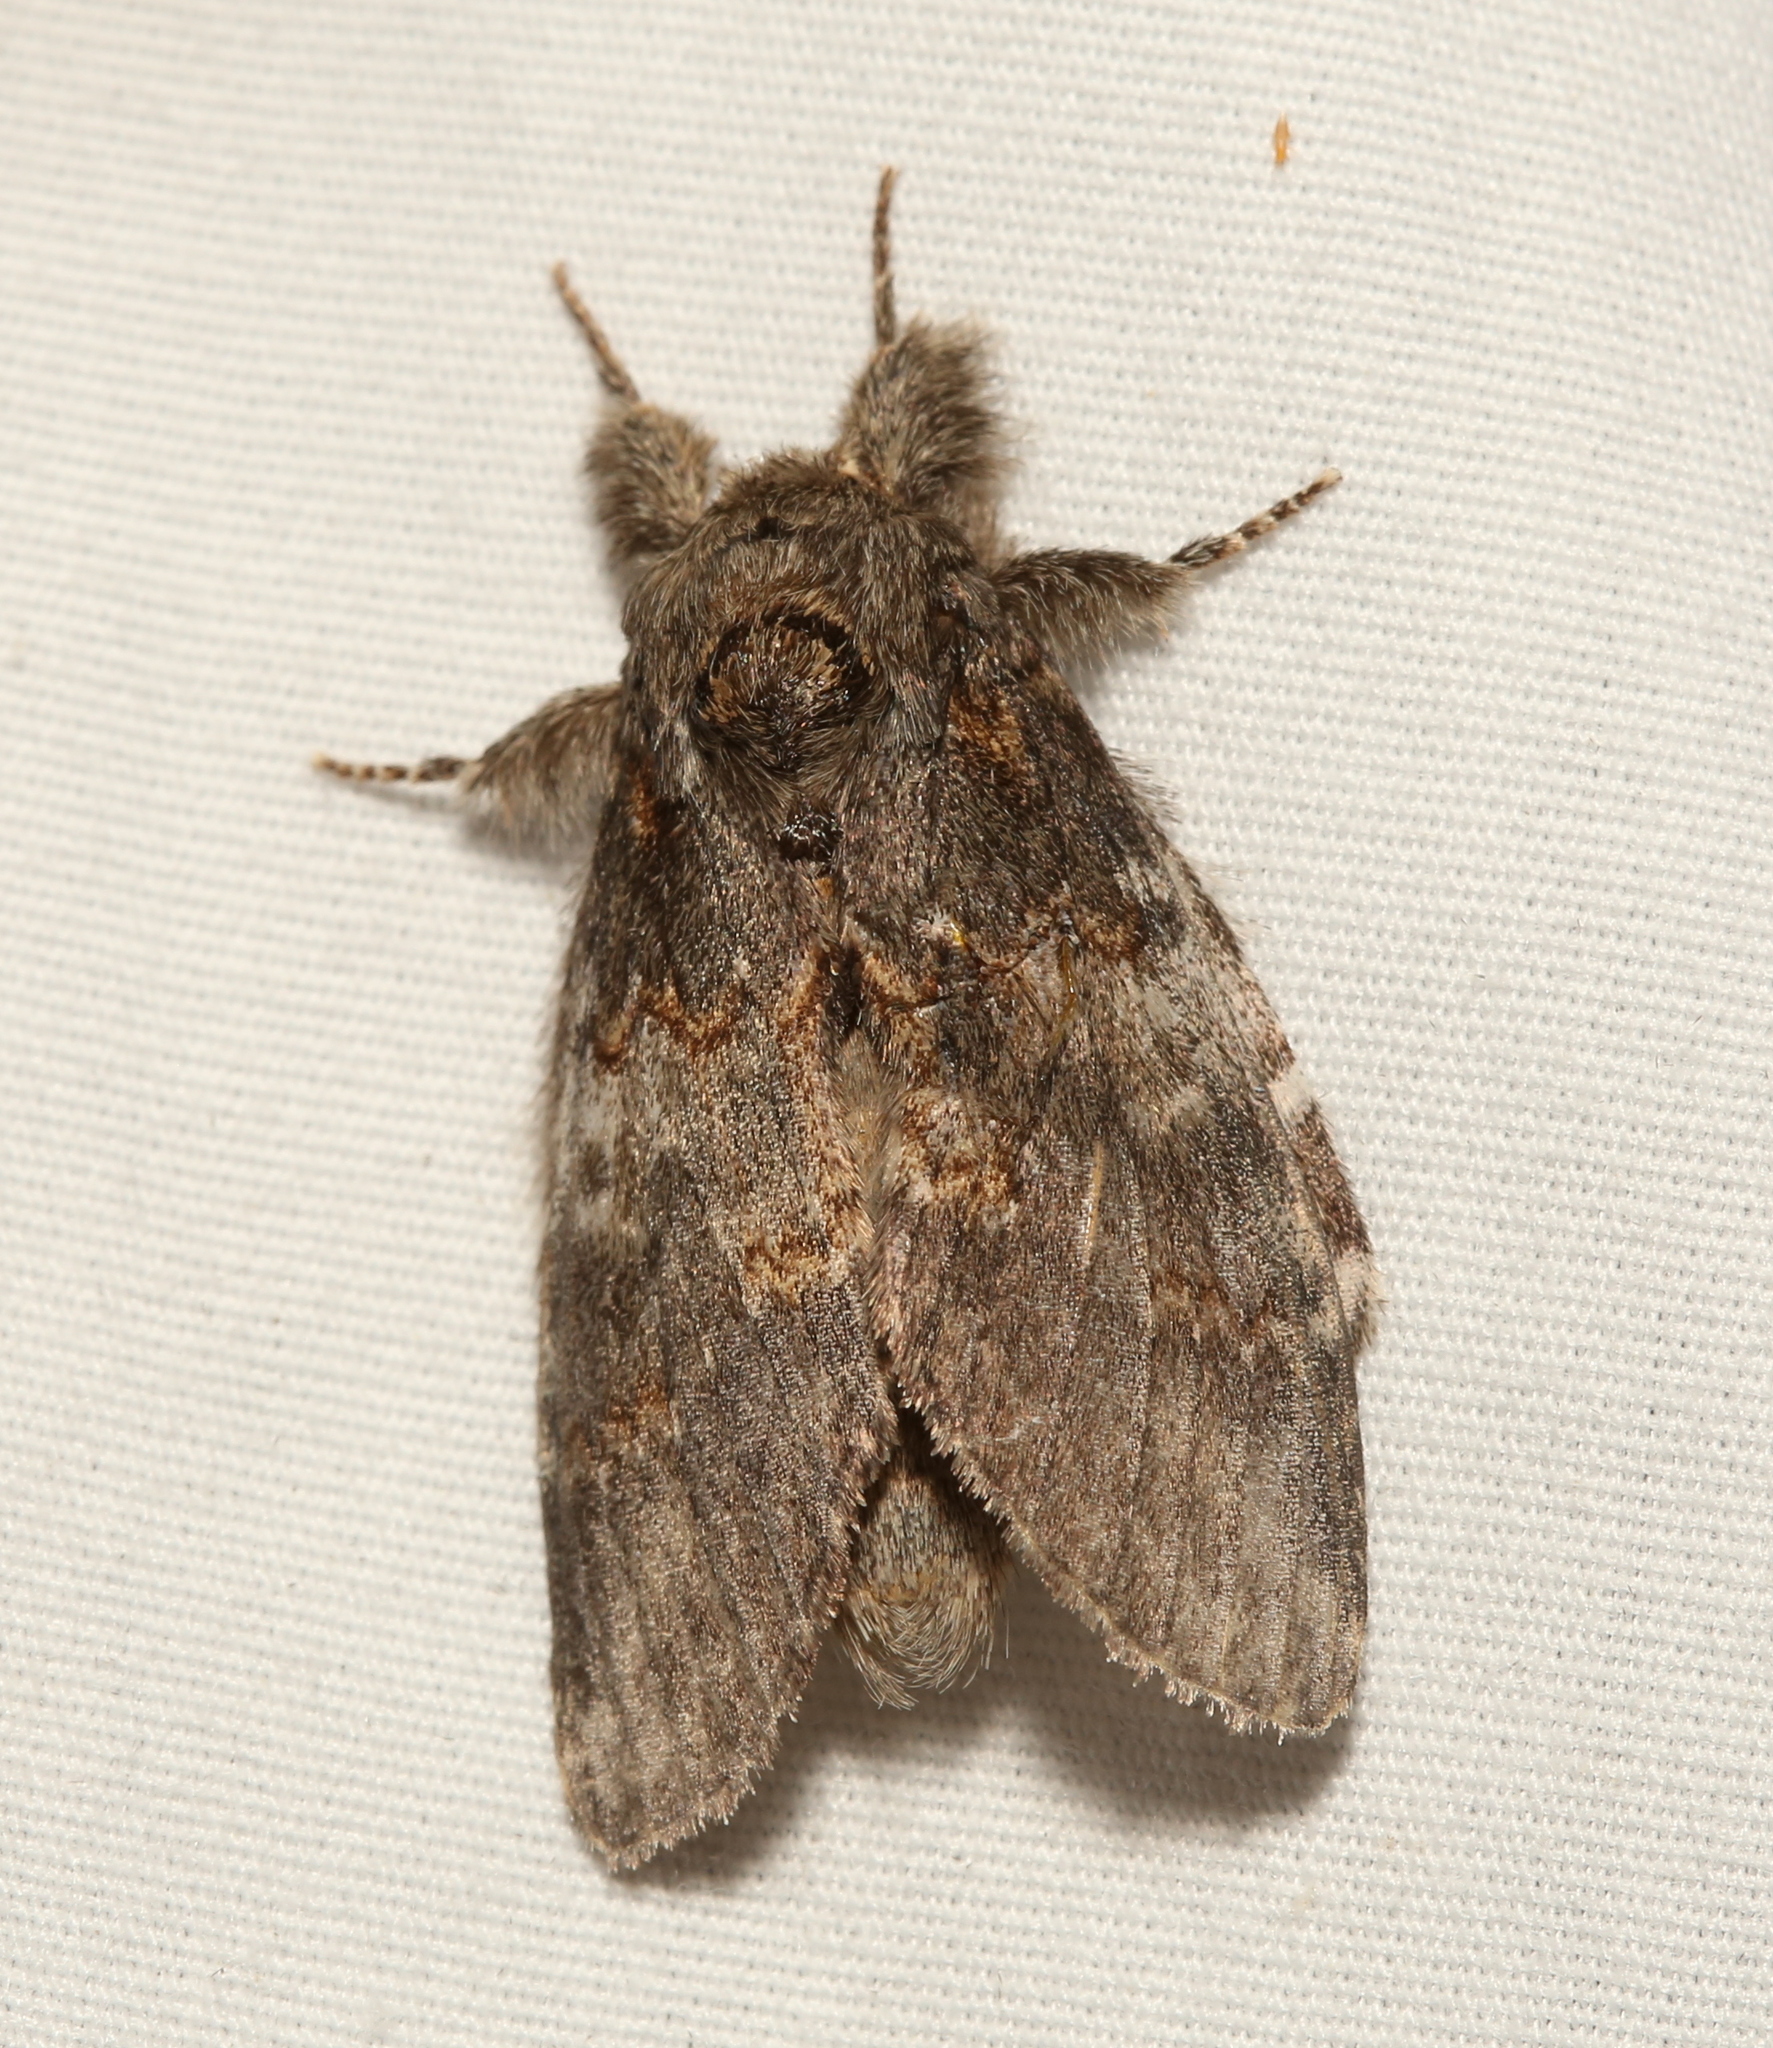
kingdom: Animalia
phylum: Arthropoda
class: Insecta
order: Lepidoptera
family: Notodontidae
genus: Peridea
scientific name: Peridea angulosa
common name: Angulose prominent
